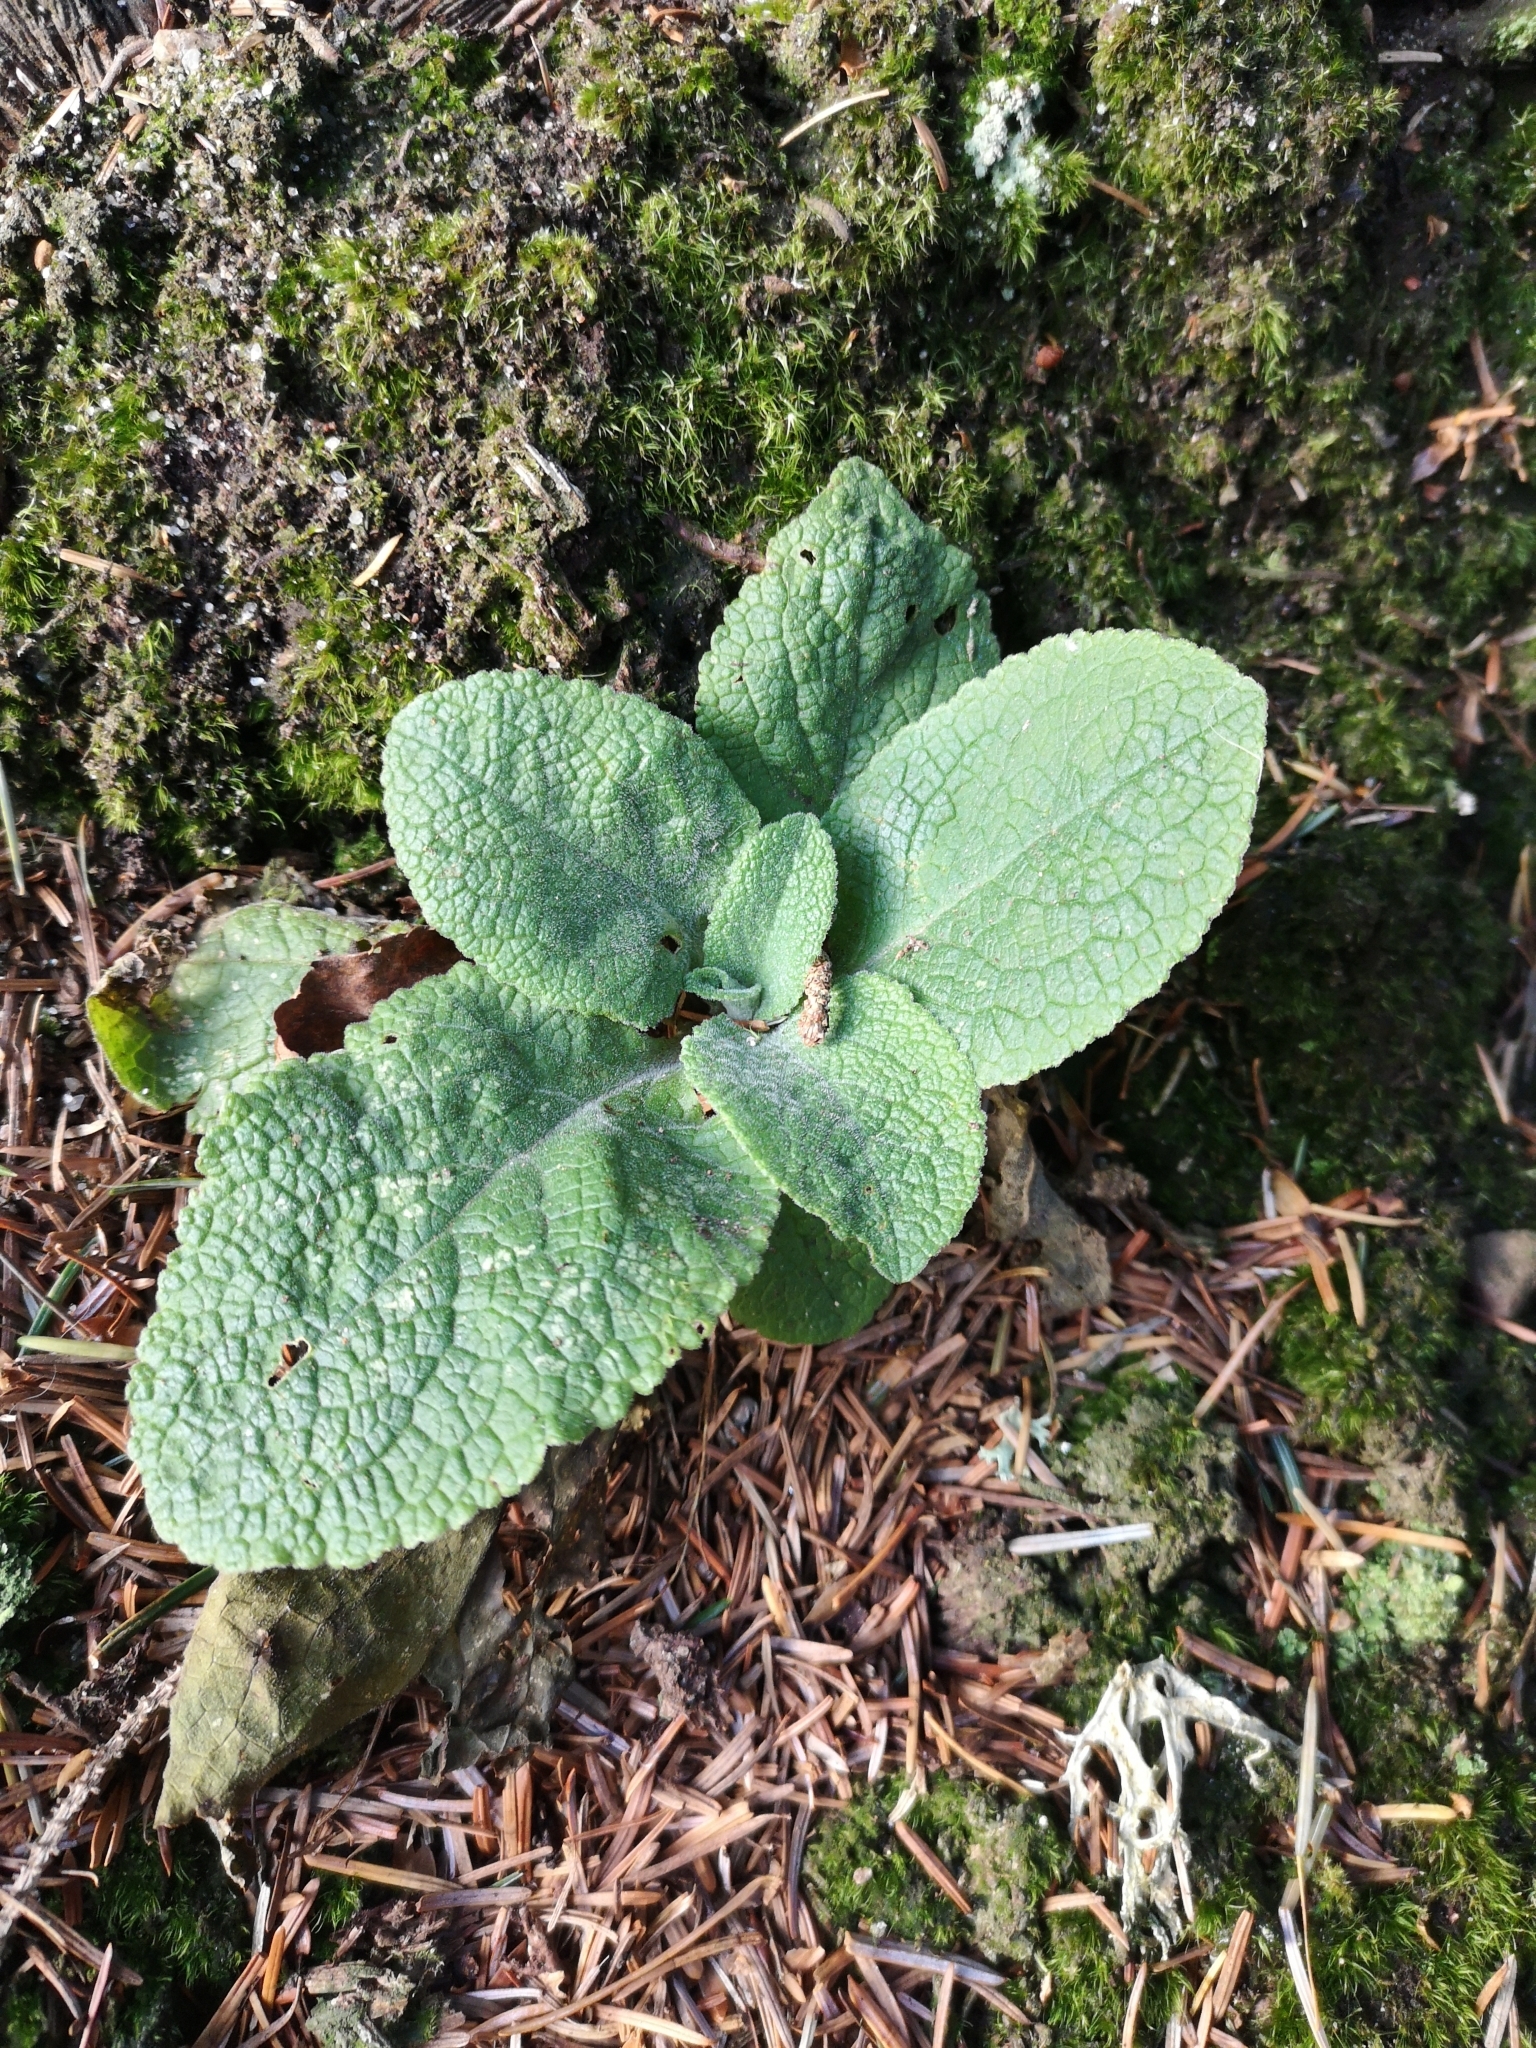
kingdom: Plantae
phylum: Tracheophyta
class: Magnoliopsida
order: Lamiales
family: Plantaginaceae
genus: Digitalis
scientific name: Digitalis purpurea
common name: Foxglove
